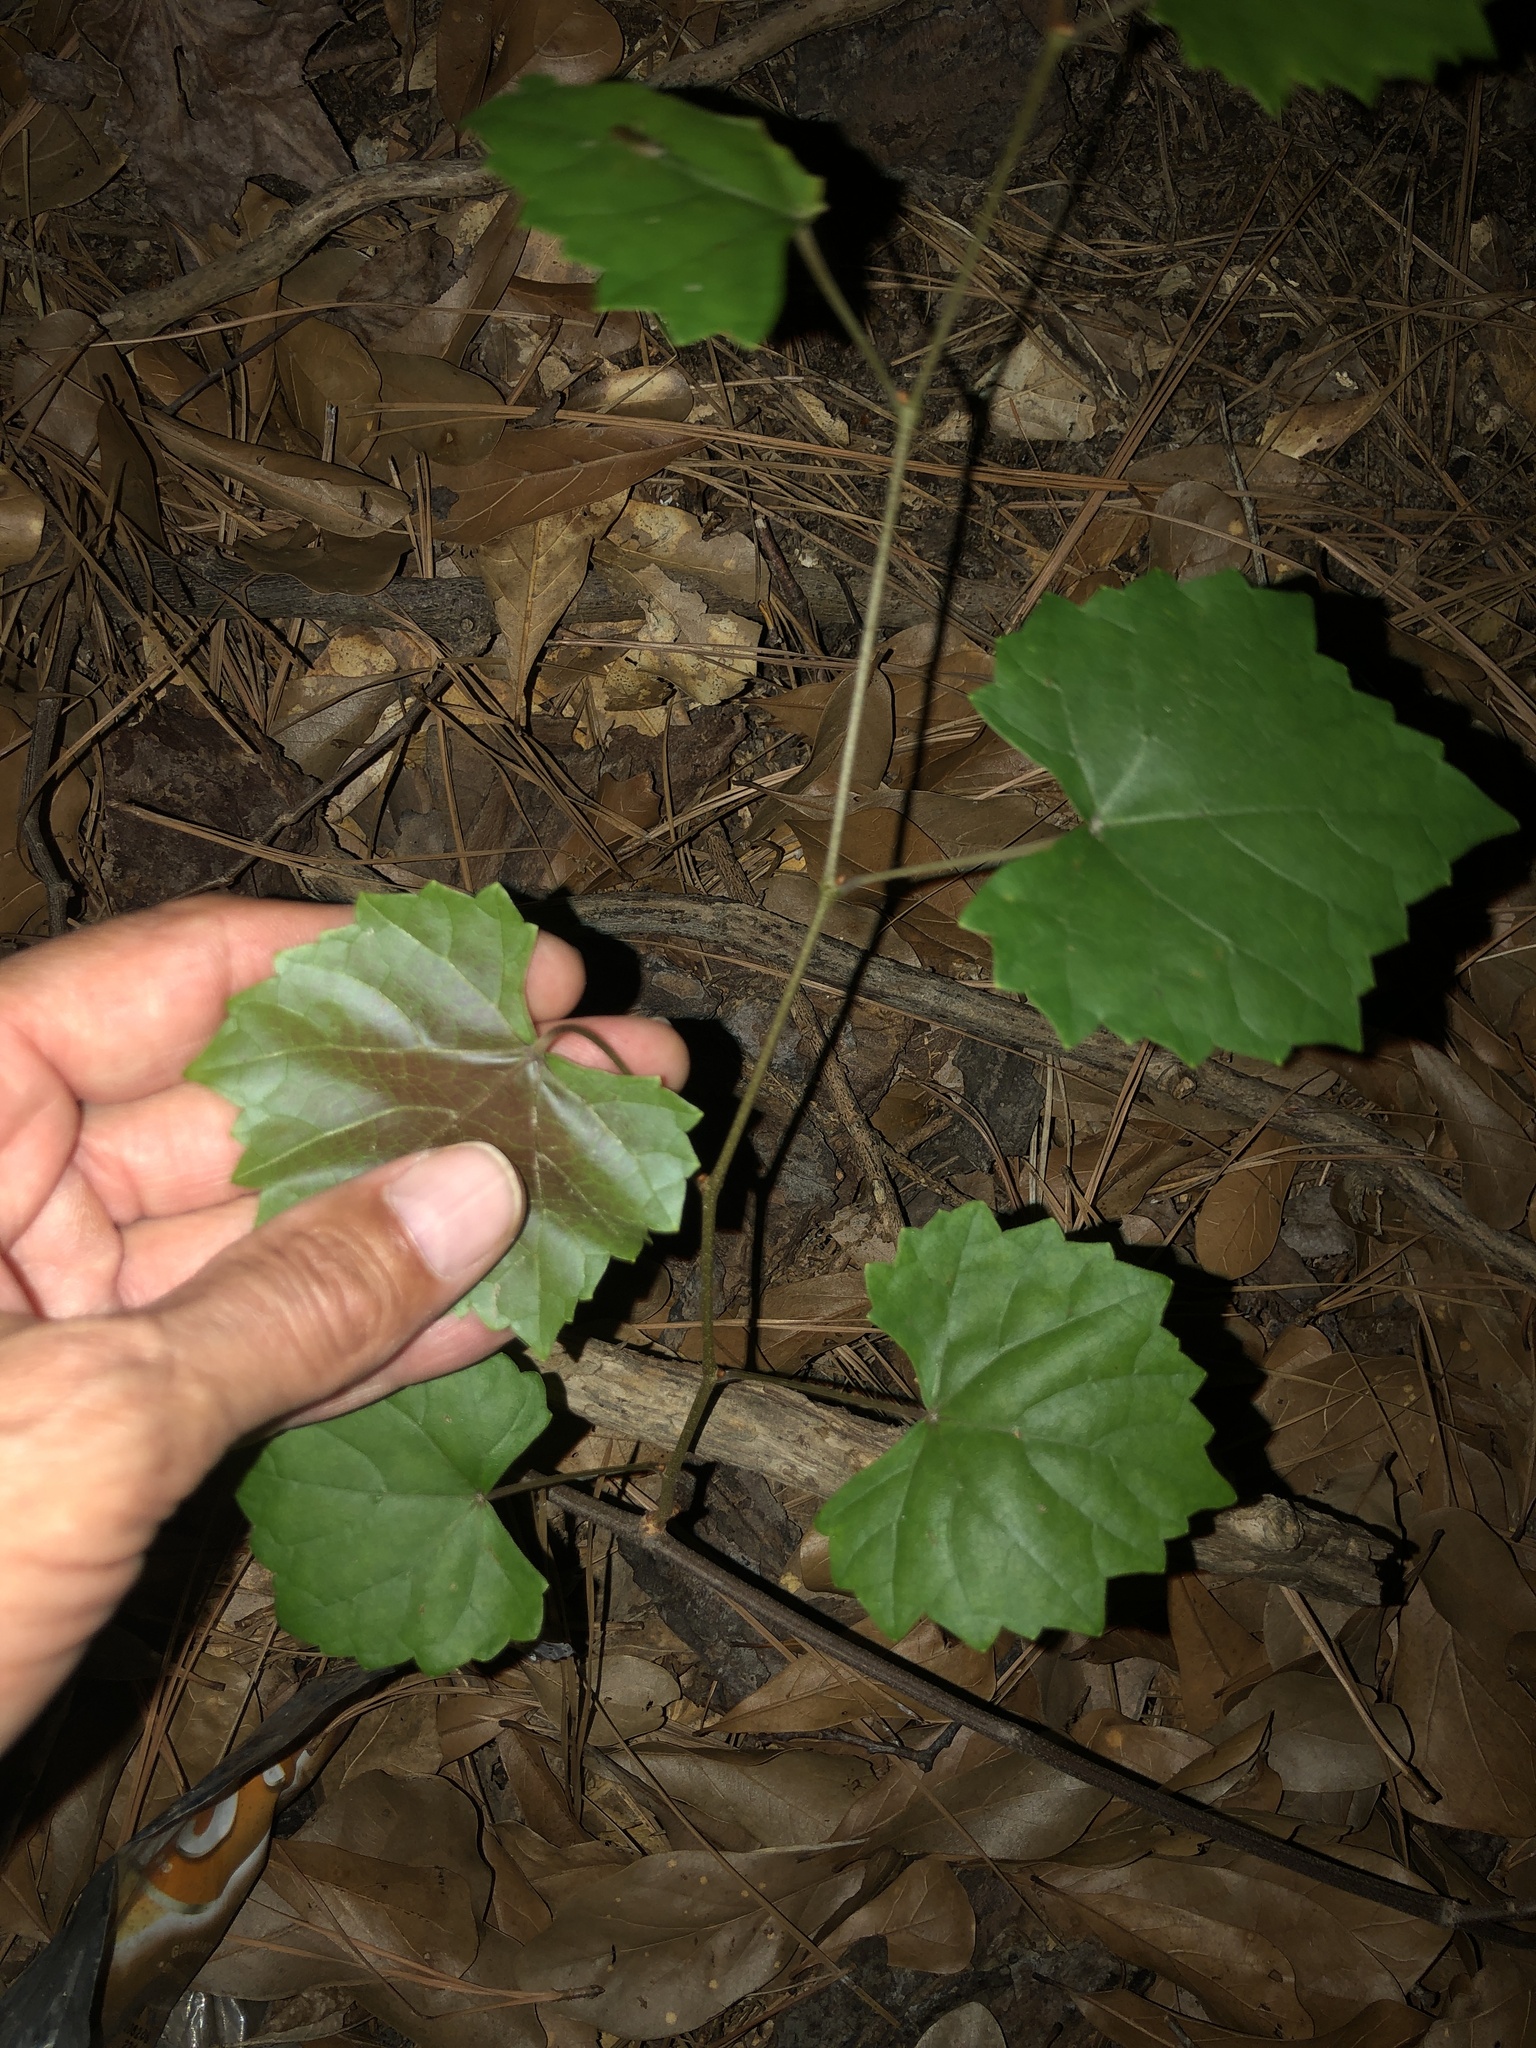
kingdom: Plantae
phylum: Tracheophyta
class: Magnoliopsida
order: Vitales
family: Vitaceae
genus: Vitis
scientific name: Vitis rotundifolia
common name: Muscadine grape
